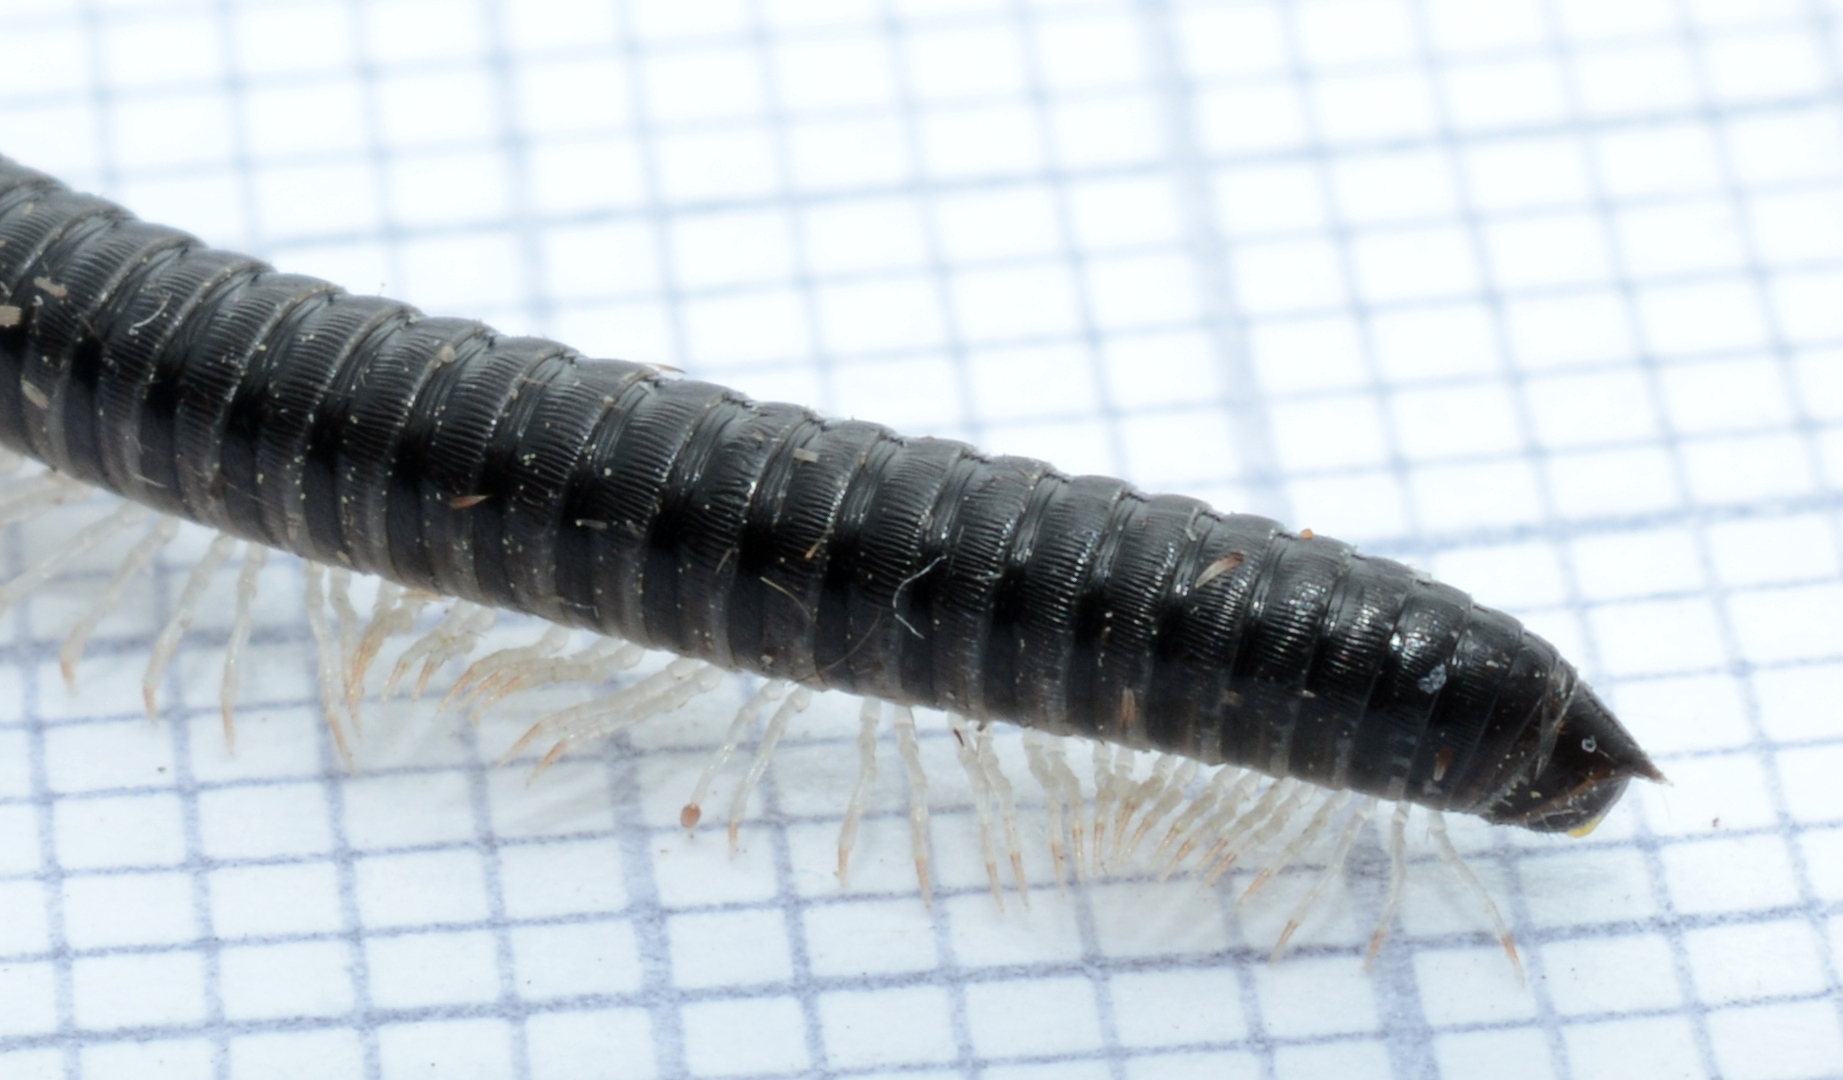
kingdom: Animalia
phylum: Arthropoda
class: Diplopoda
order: Julida
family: Julidae
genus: Tachypodoiulus
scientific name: Tachypodoiulus niger
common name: White-legged snake millipede
